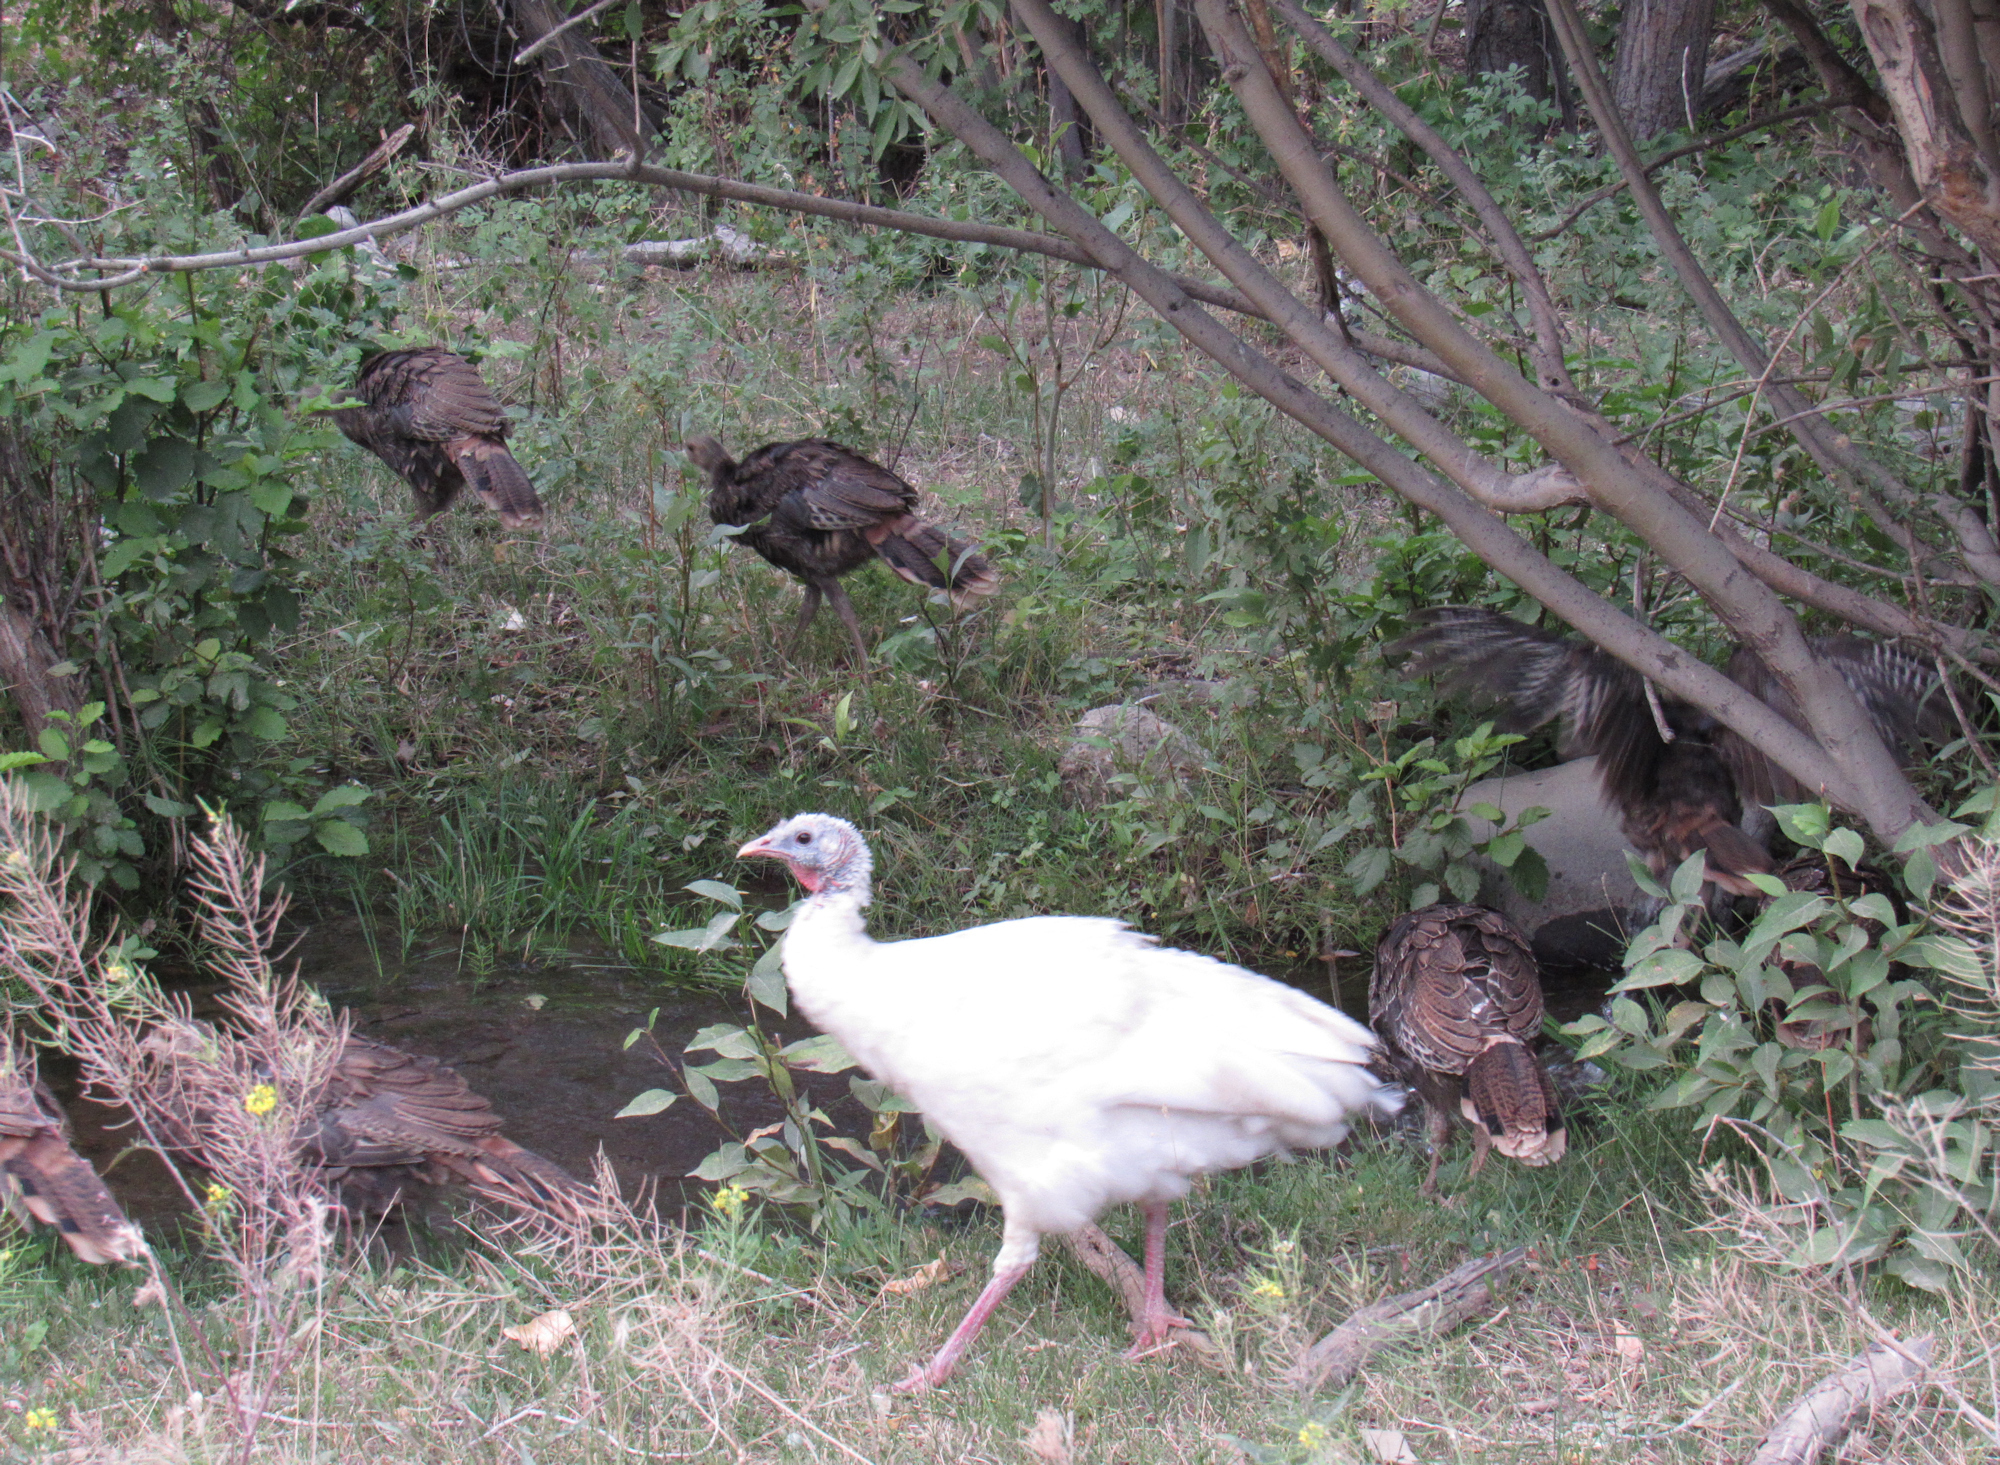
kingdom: Animalia
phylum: Chordata
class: Aves
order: Galliformes
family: Phasianidae
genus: Meleagris
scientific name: Meleagris gallopavo
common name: Wild turkey
